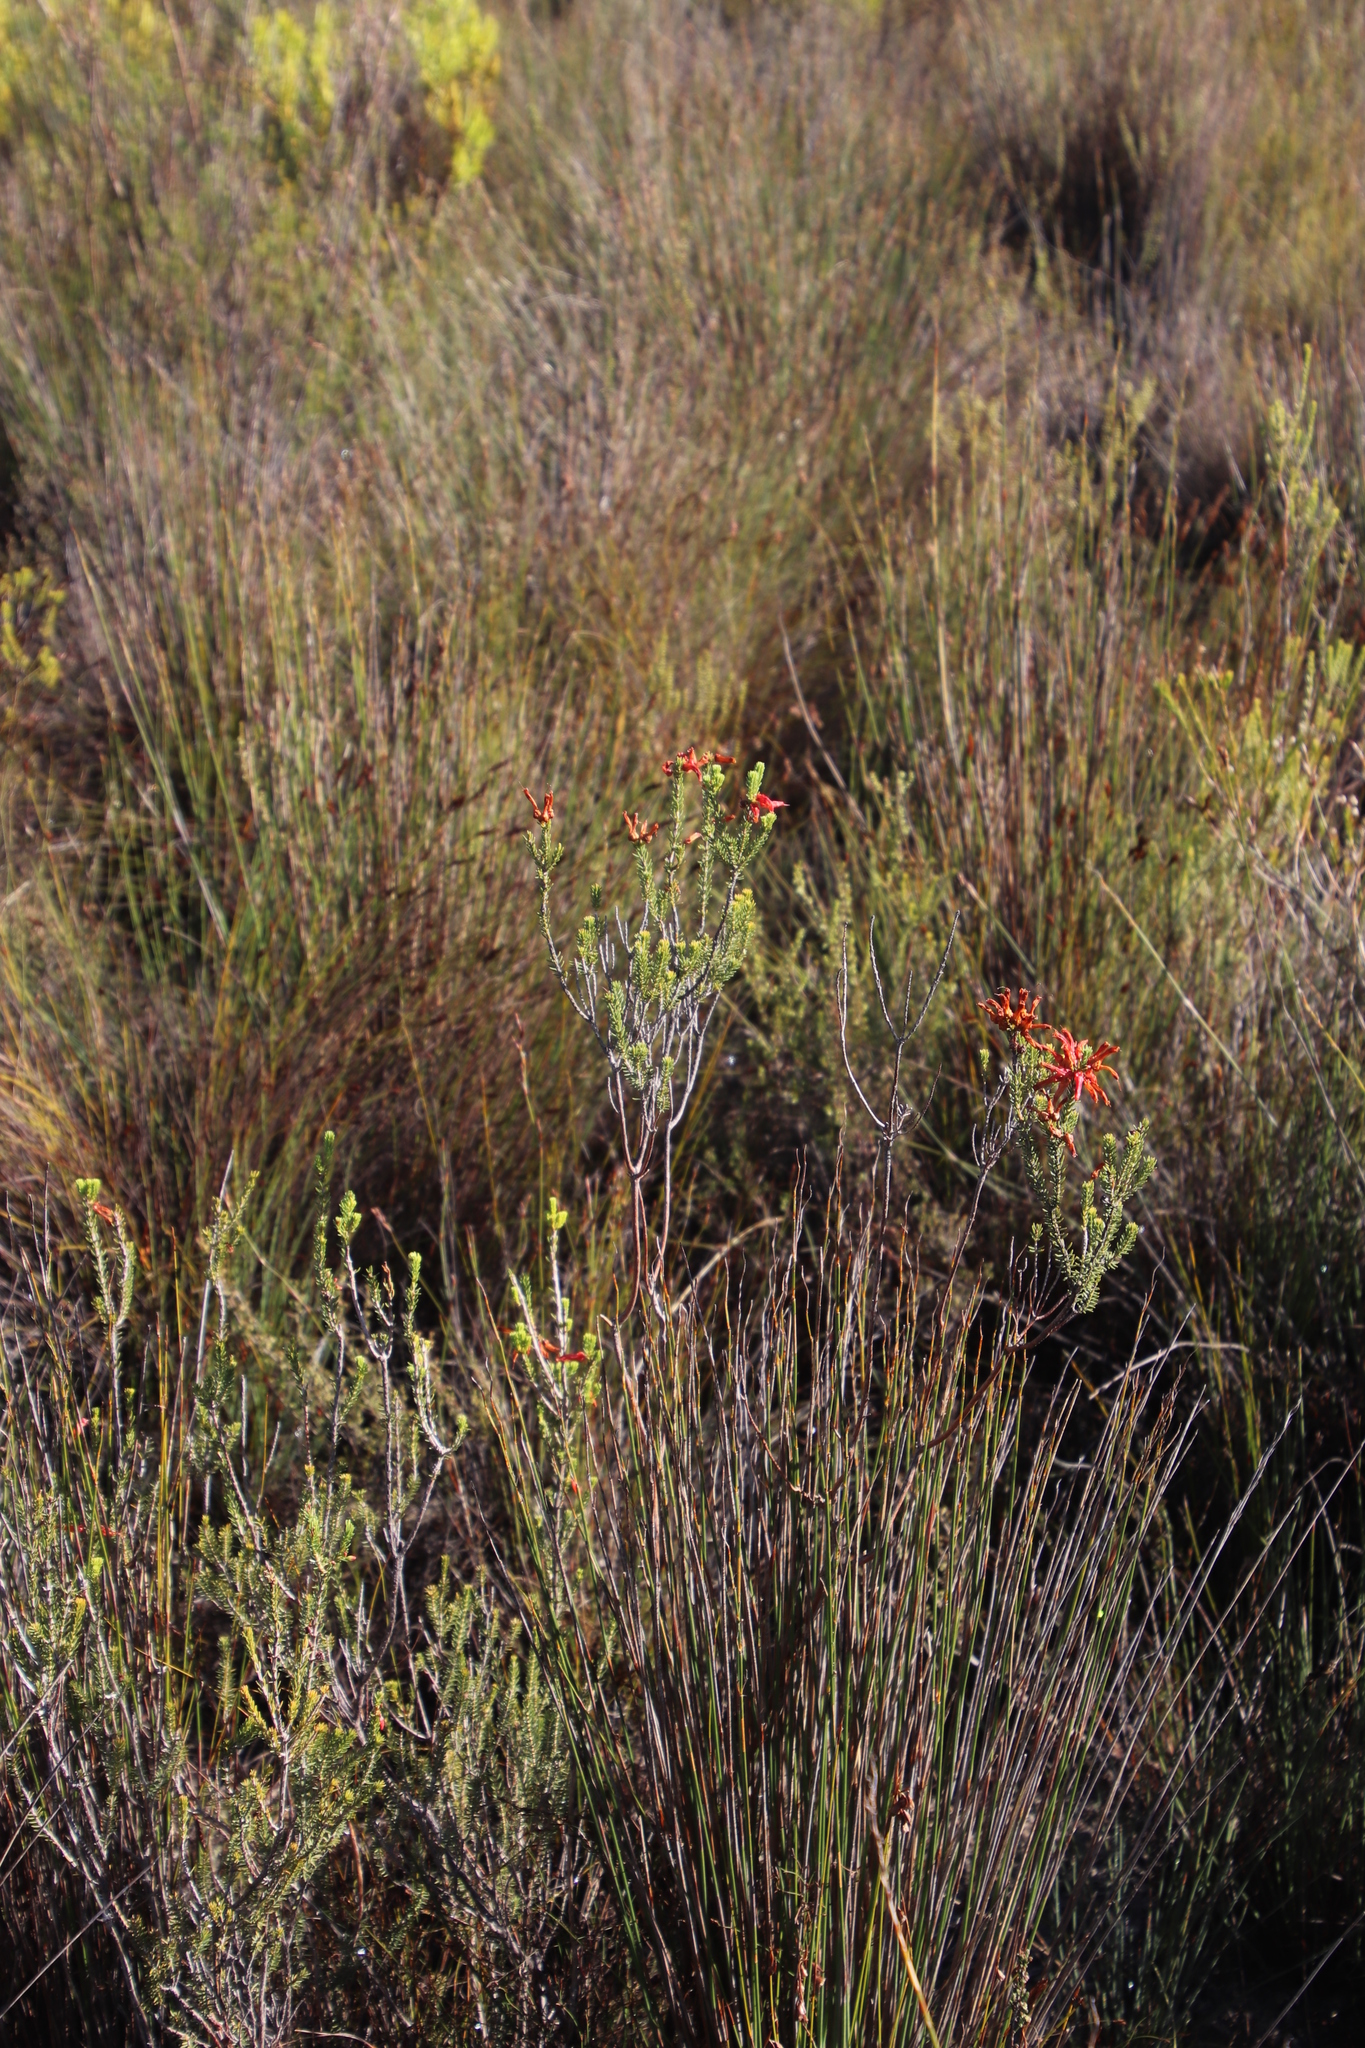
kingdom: Plantae
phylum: Tracheophyta
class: Magnoliopsida
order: Ericales
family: Ericaceae
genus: Erica
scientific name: Erica mammosa
